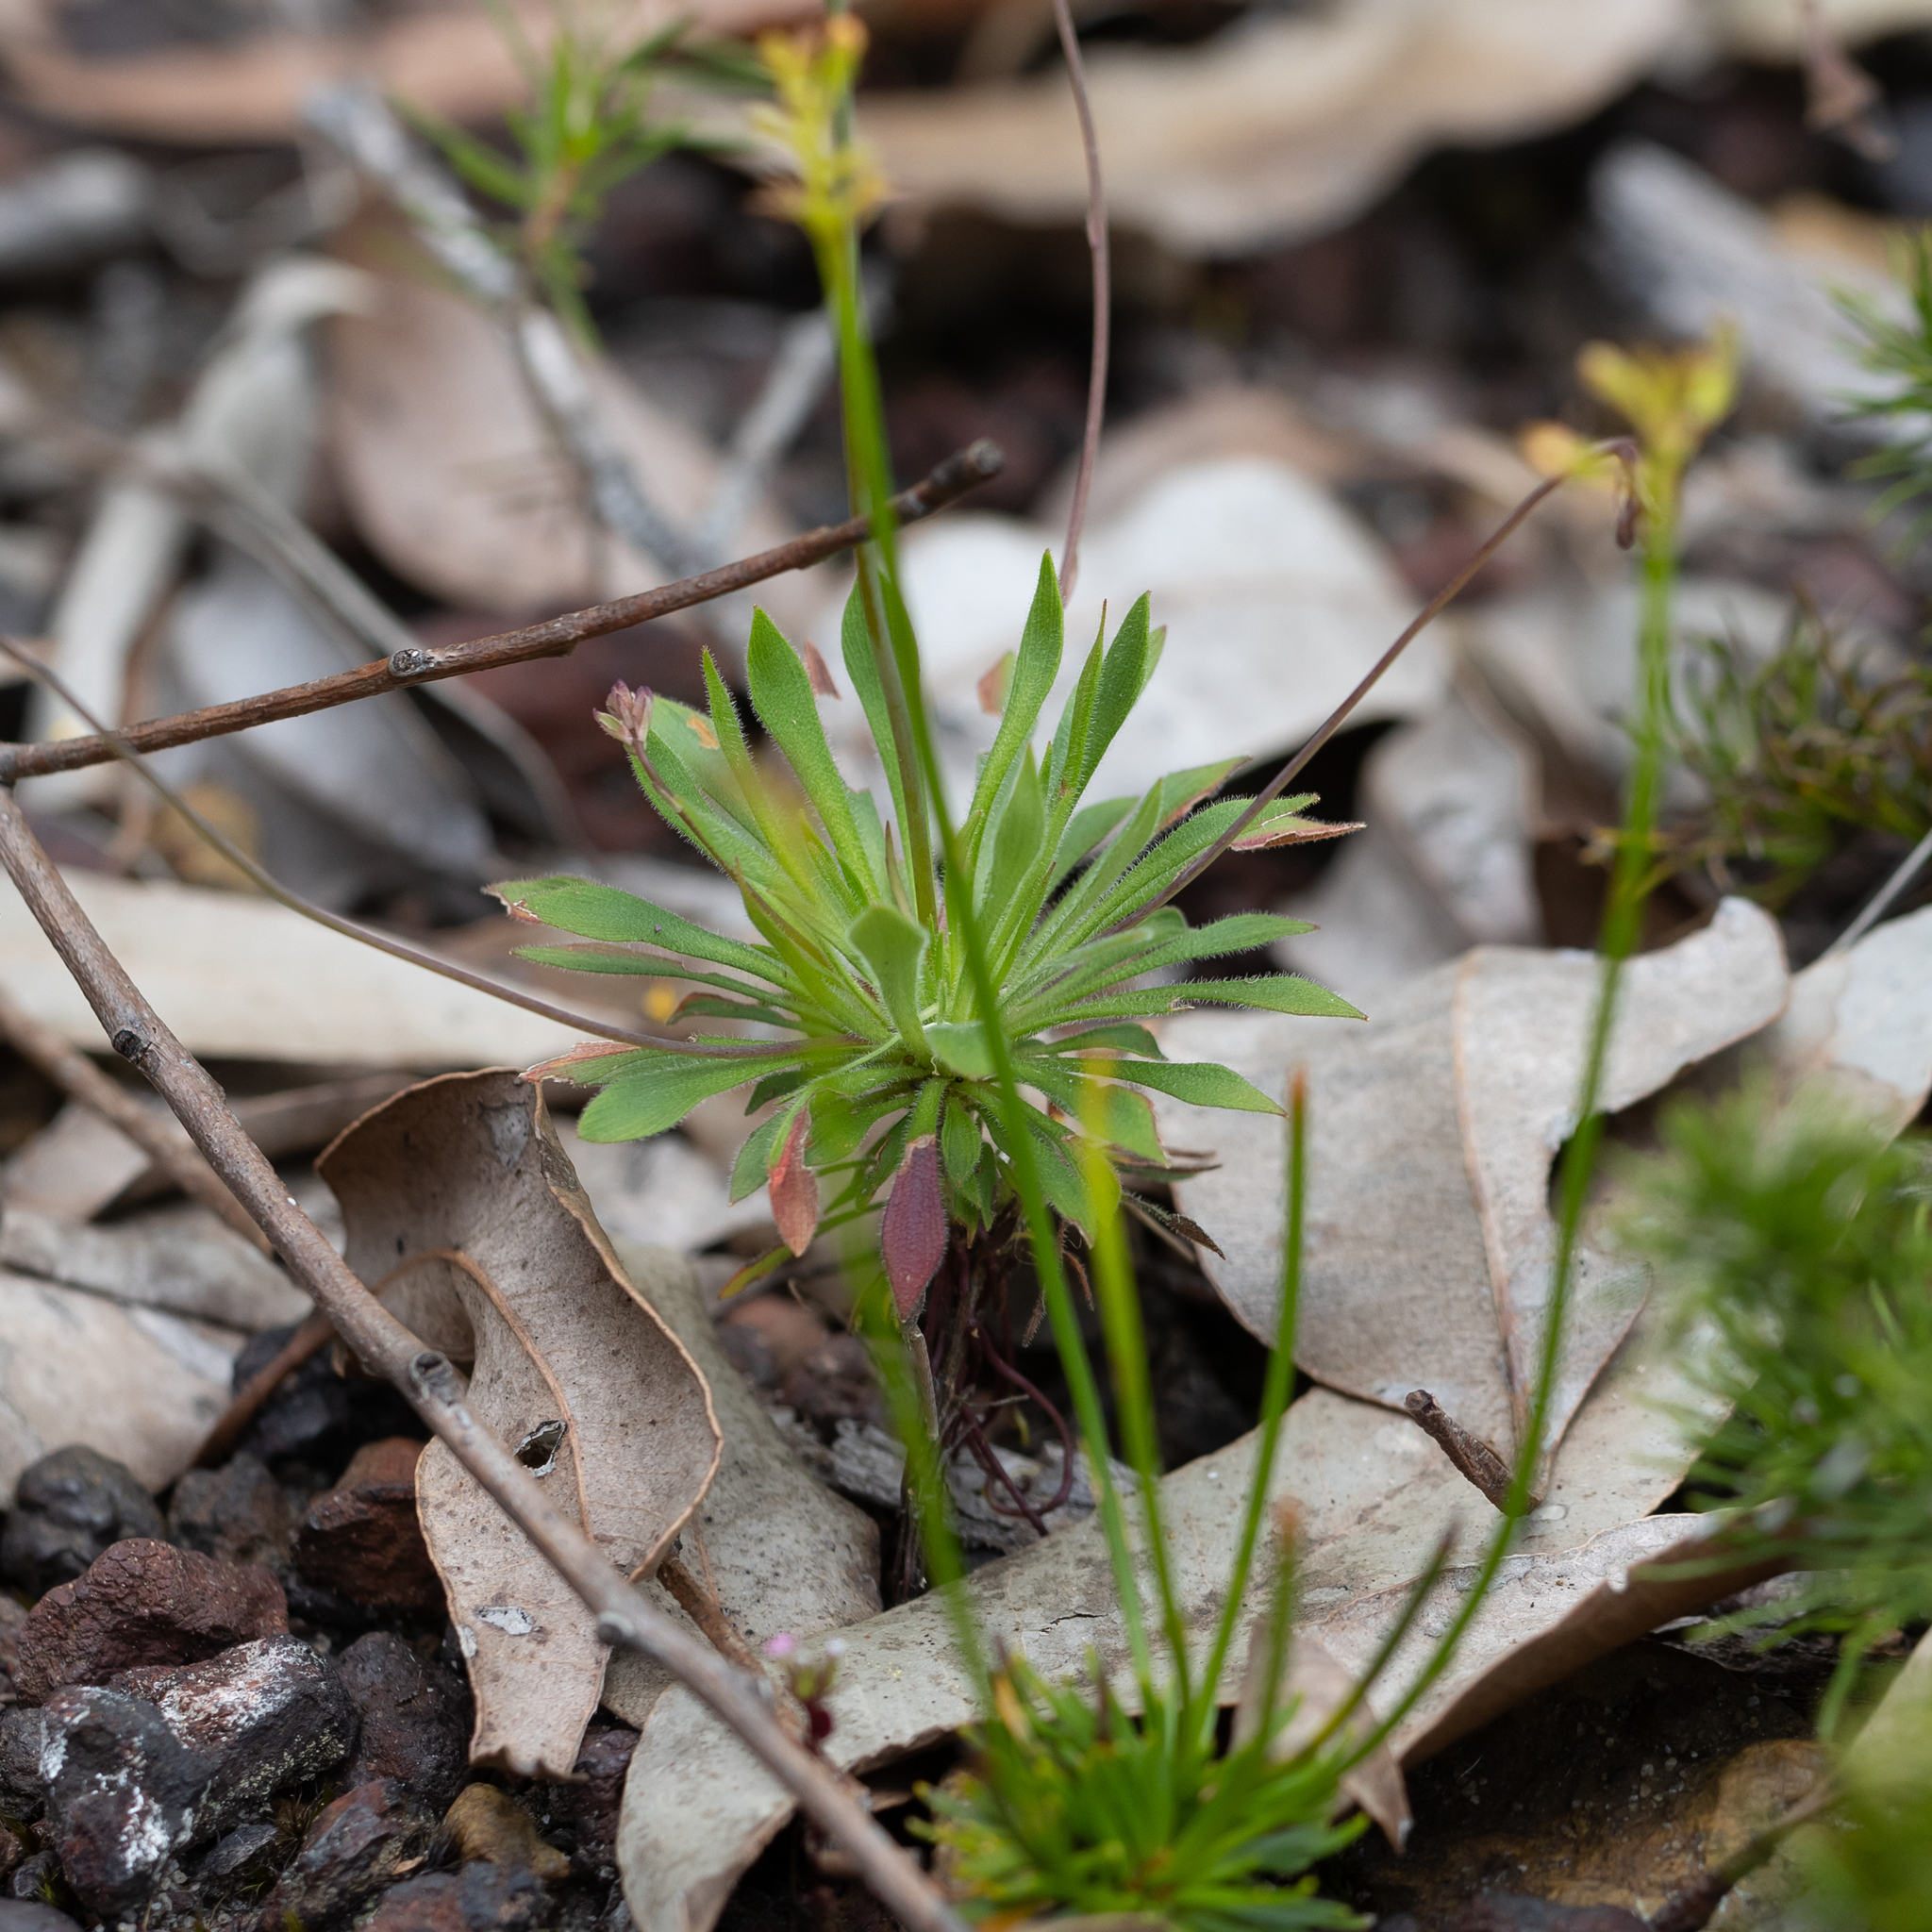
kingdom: Plantae
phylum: Tracheophyta
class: Magnoliopsida
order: Asterales
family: Stylidiaceae
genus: Stylidium
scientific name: Stylidium acuminatum
